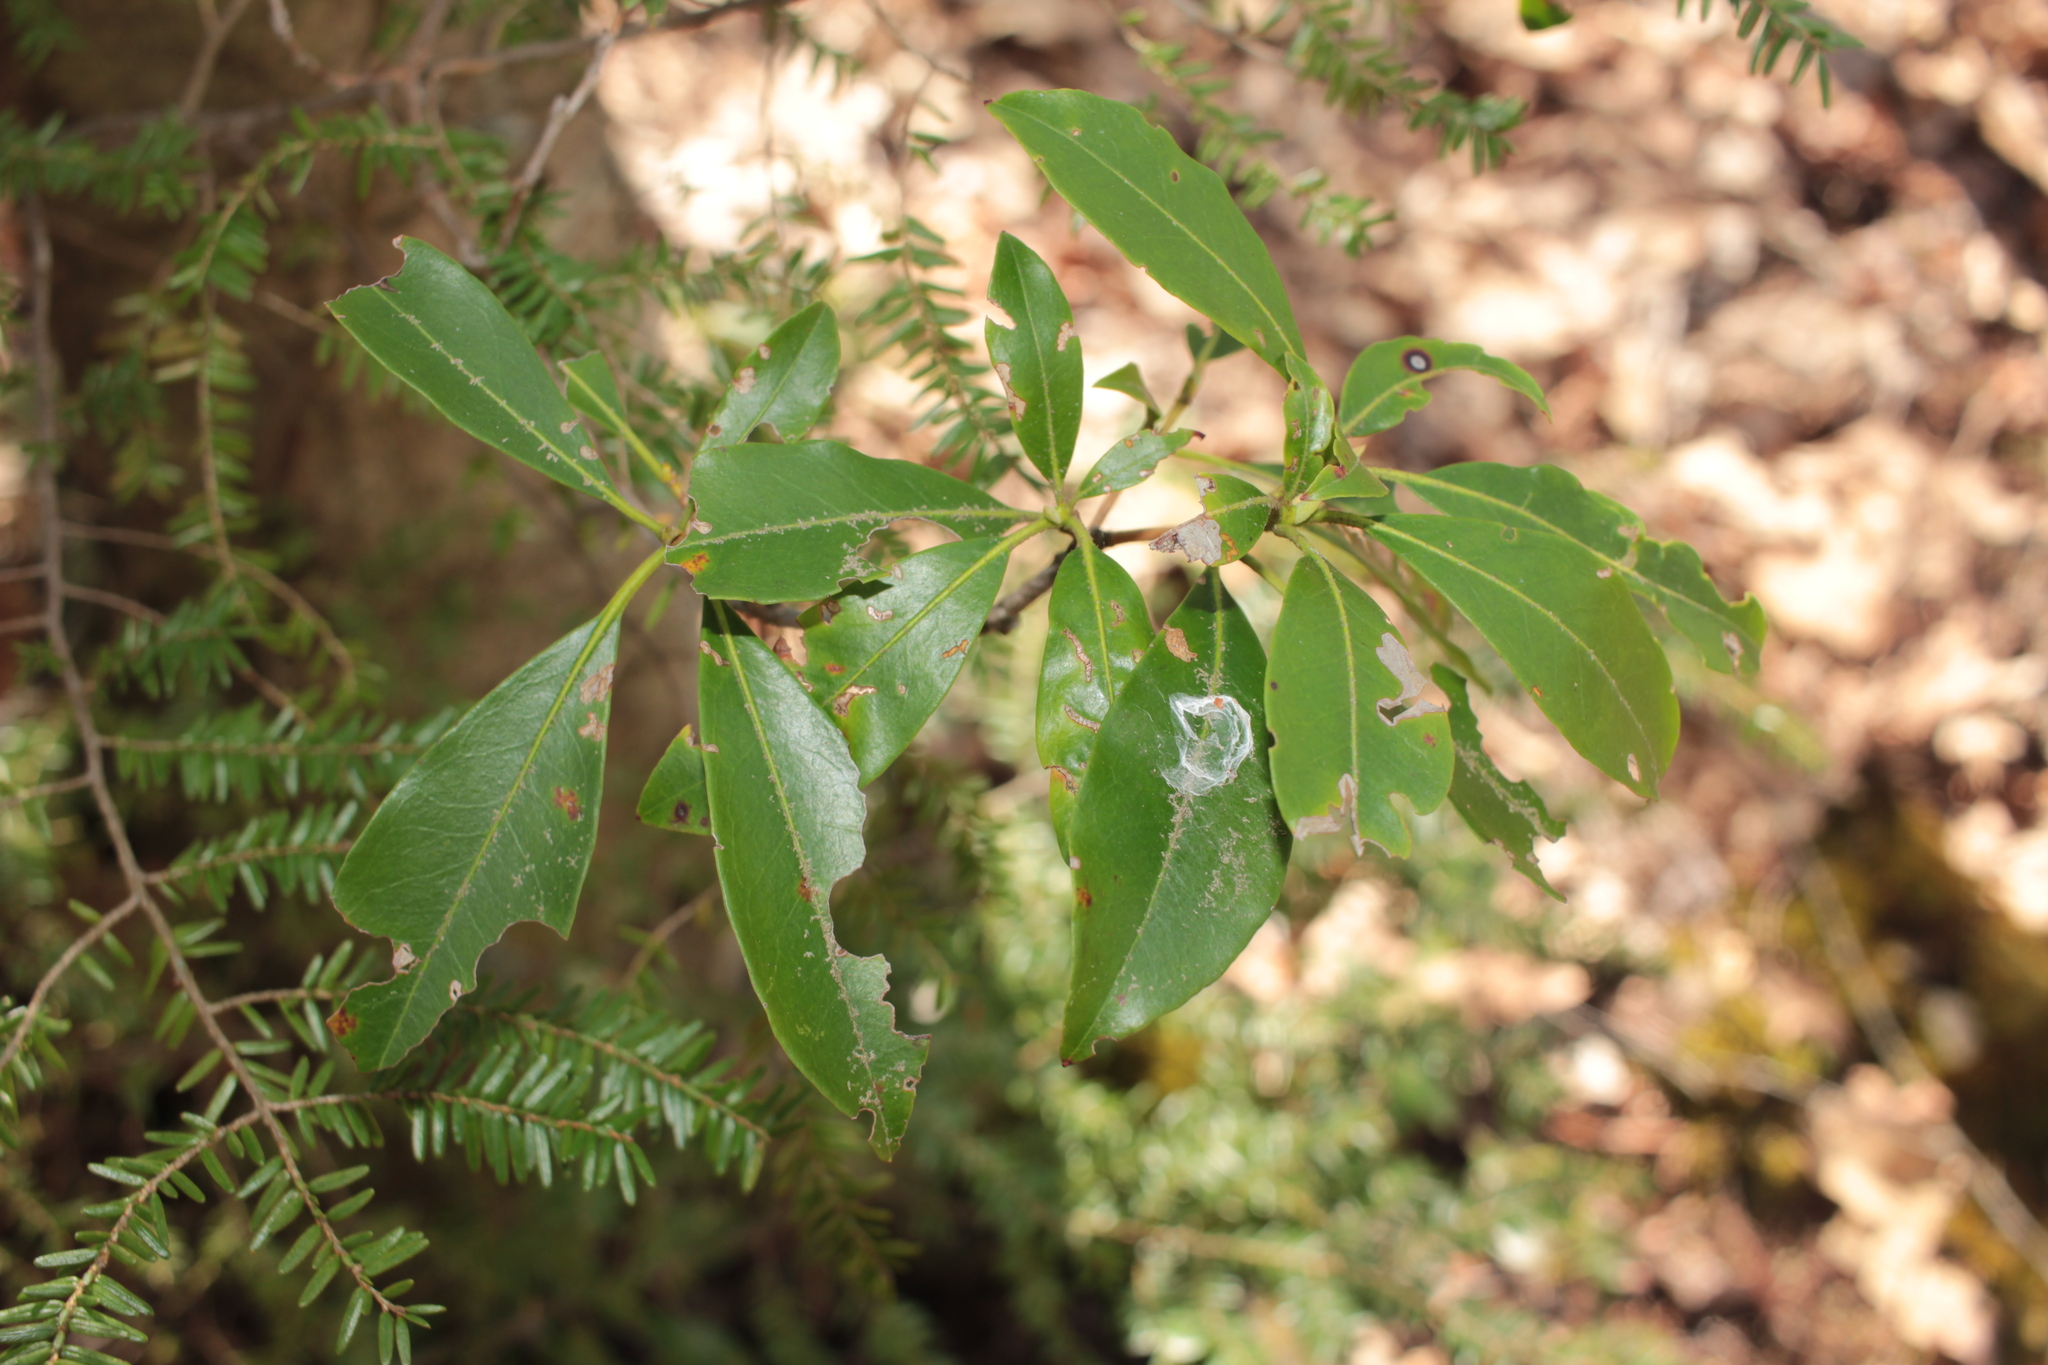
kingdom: Plantae
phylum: Tracheophyta
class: Magnoliopsida
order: Ericales
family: Ericaceae
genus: Kalmia
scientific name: Kalmia latifolia
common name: Mountain-laurel
